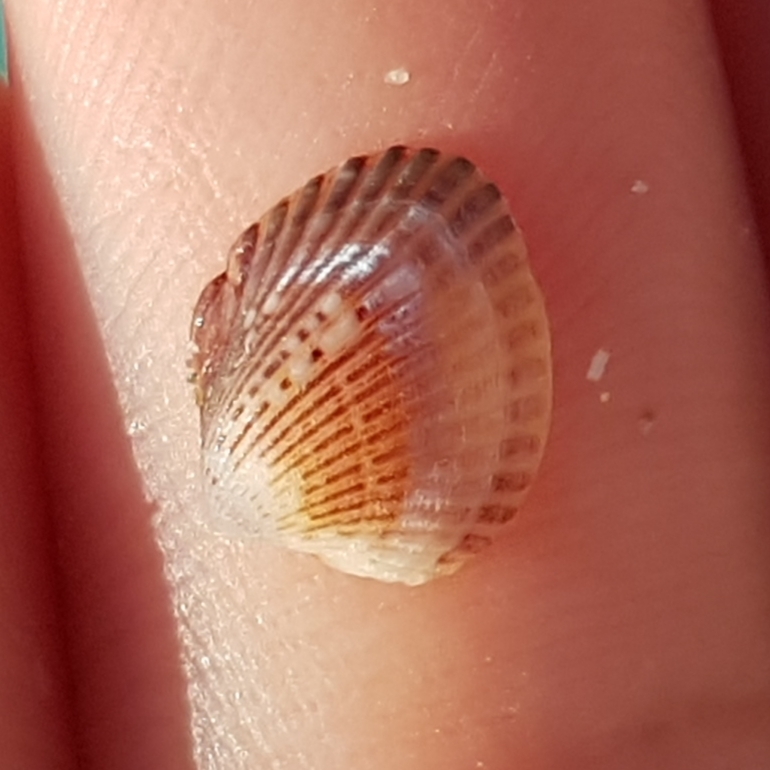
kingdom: Animalia
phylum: Mollusca
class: Bivalvia
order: Cardiida
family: Cardiidae
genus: Parvicardium
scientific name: Parvicardium exiguum
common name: Little cockle
